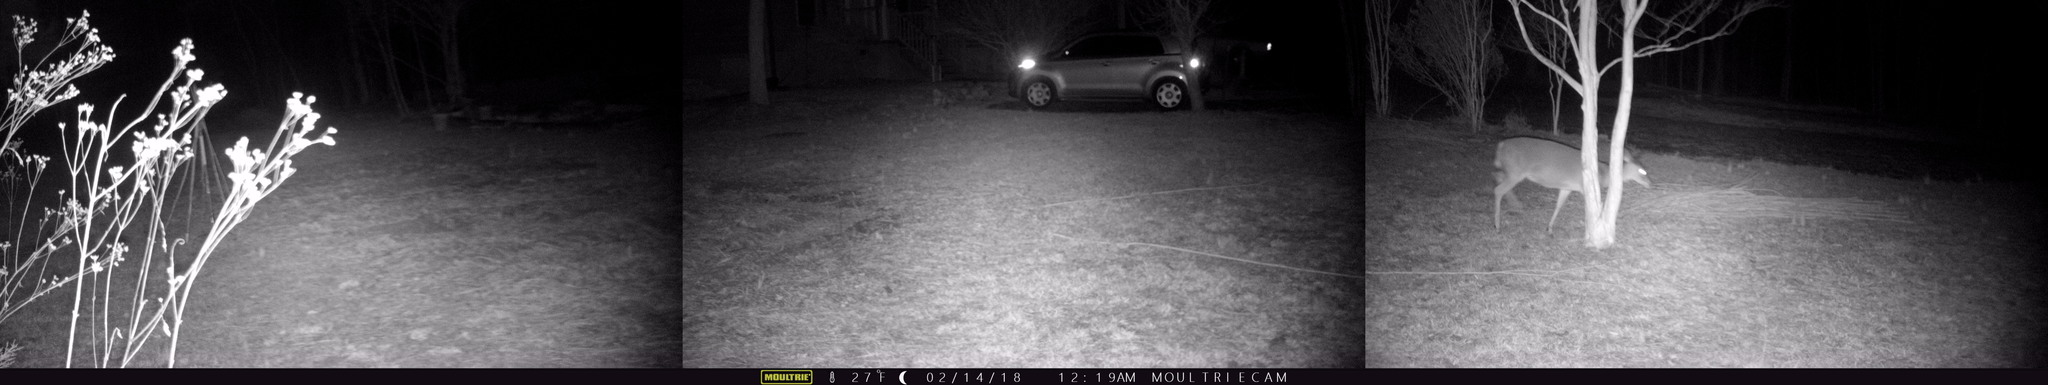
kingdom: Animalia
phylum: Chordata
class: Mammalia
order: Artiodactyla
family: Cervidae
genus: Odocoileus
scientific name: Odocoileus virginianus
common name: White-tailed deer
